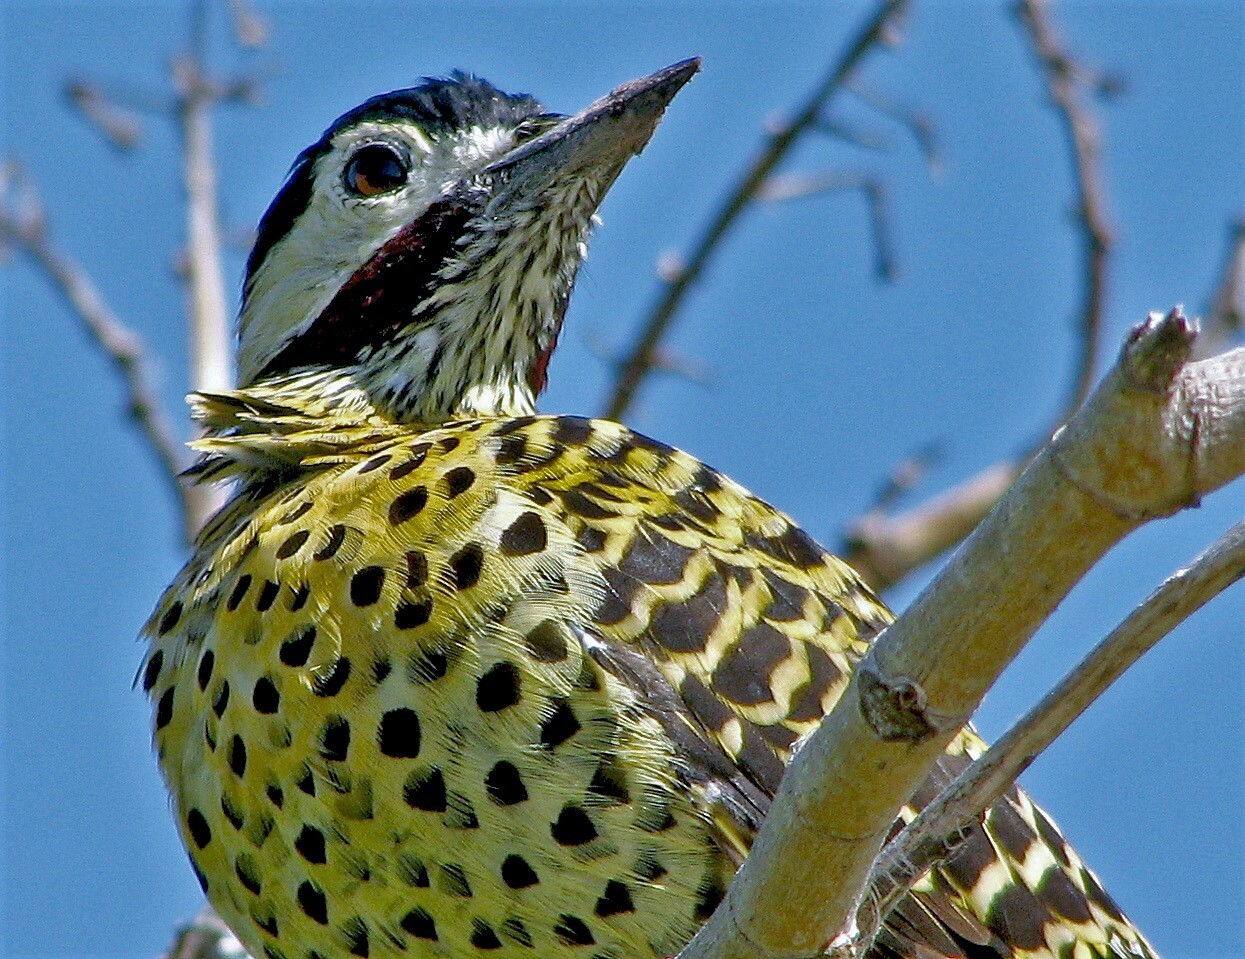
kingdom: Animalia
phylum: Chordata
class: Aves
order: Piciformes
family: Picidae
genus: Colaptes
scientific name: Colaptes melanochloros
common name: Green-barred woodpecker
